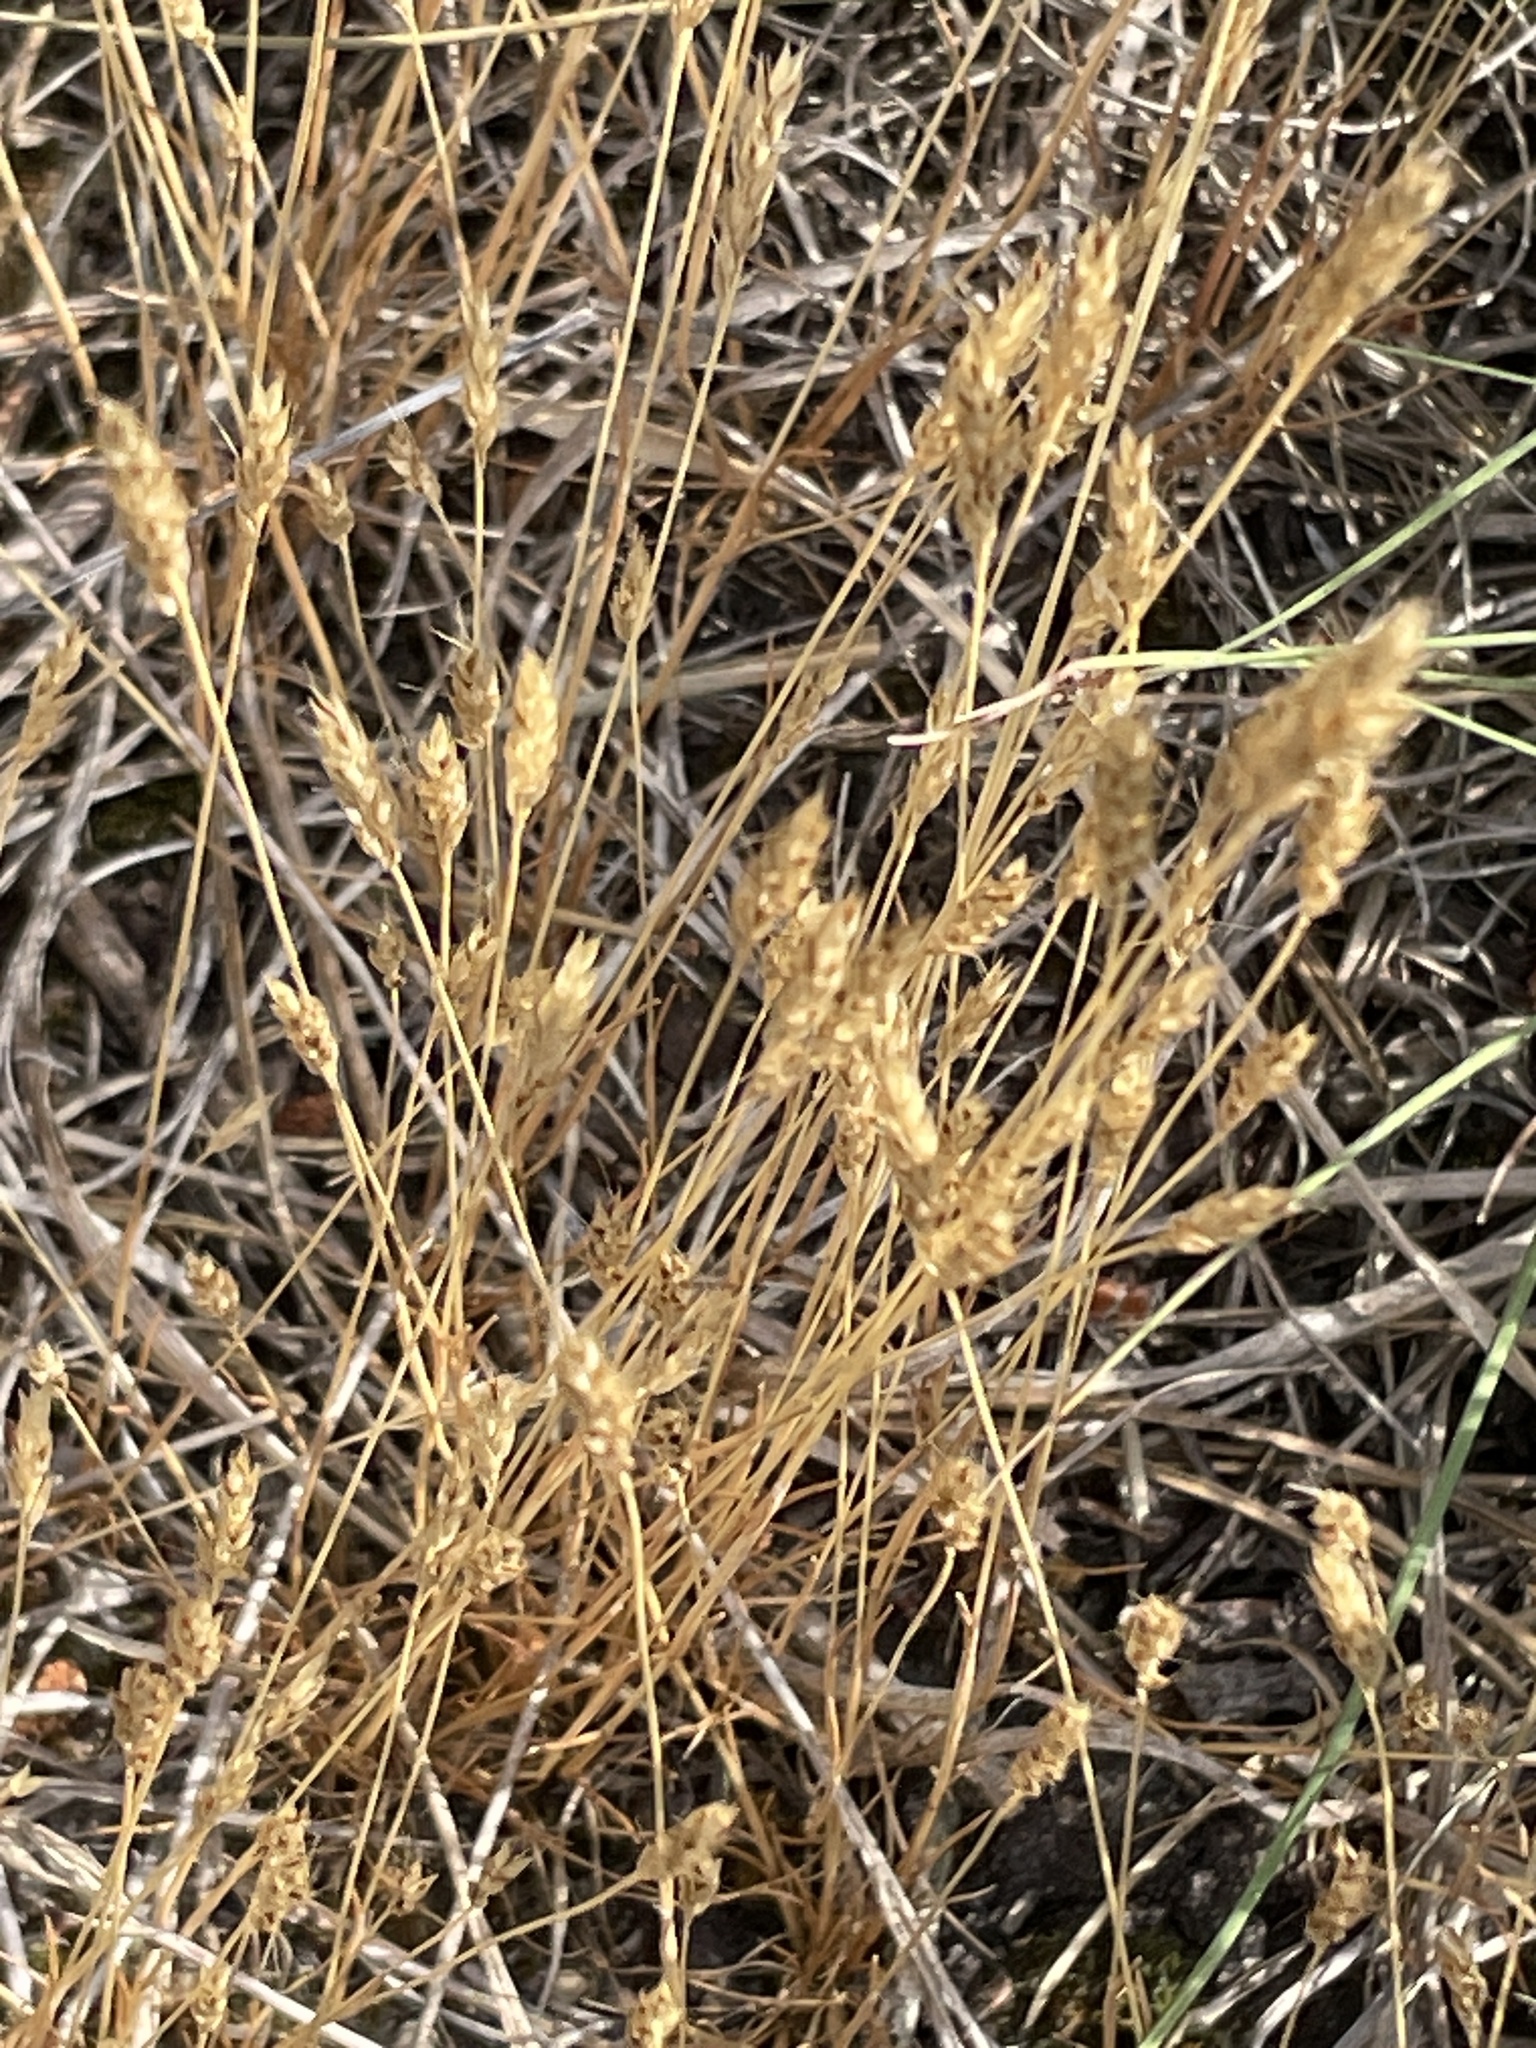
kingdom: Plantae
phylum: Tracheophyta
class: Liliopsida
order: Poales
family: Poaceae
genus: Aira
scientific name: Aira praecox
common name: Early hair-grass
